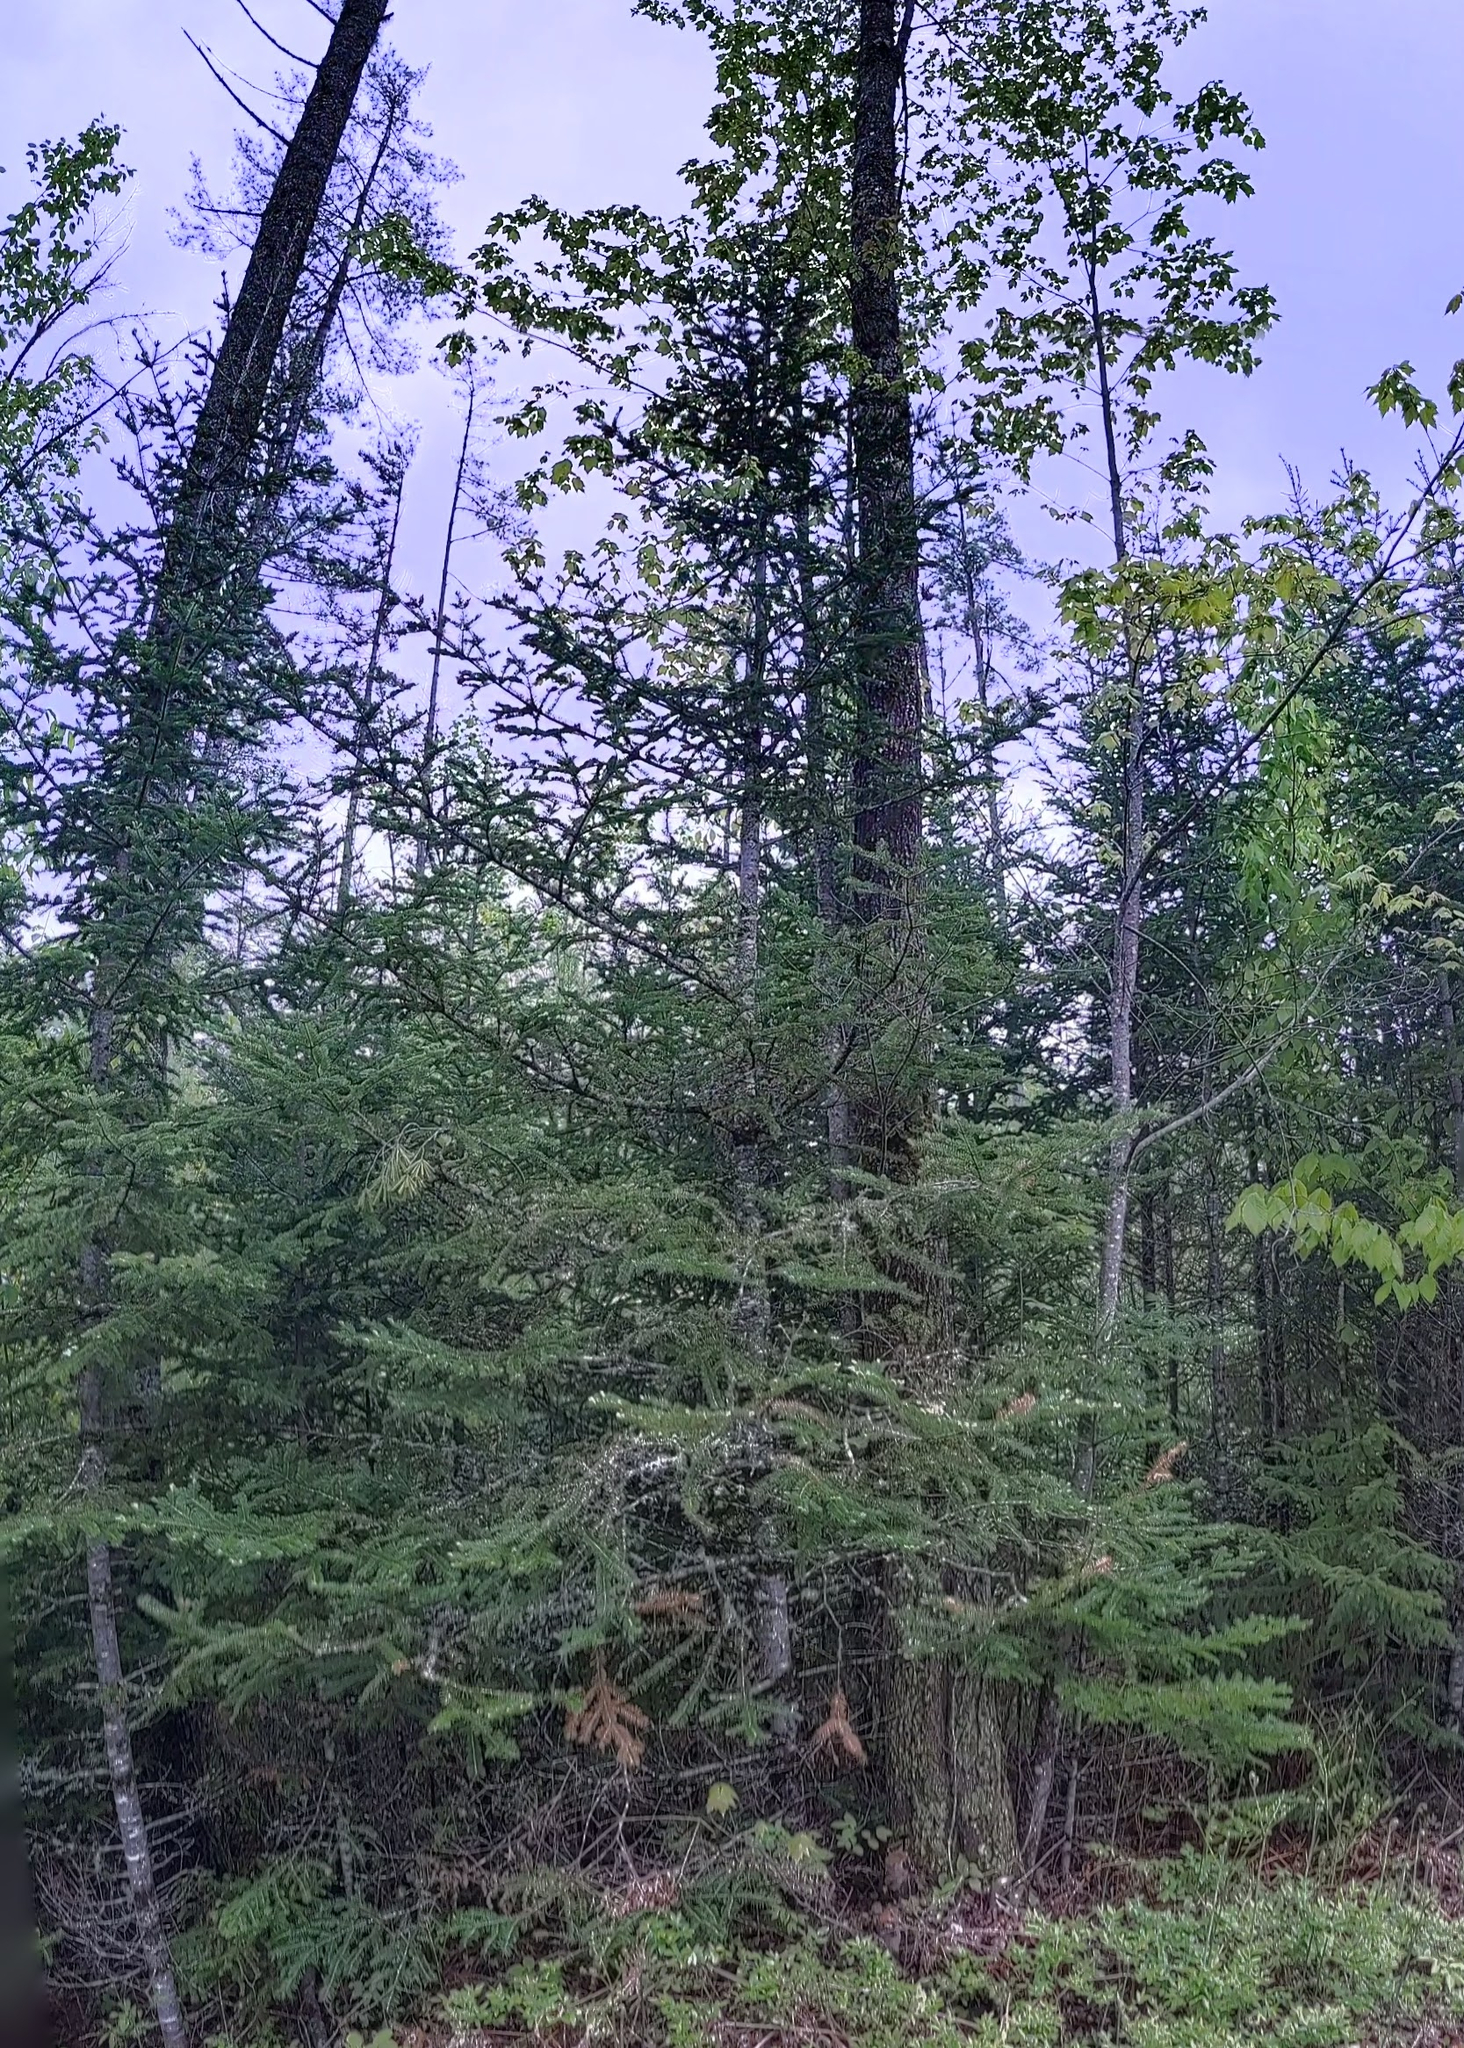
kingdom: Plantae
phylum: Tracheophyta
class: Pinopsida
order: Pinales
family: Pinaceae
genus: Abies
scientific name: Abies balsamea
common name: Balsam fir
